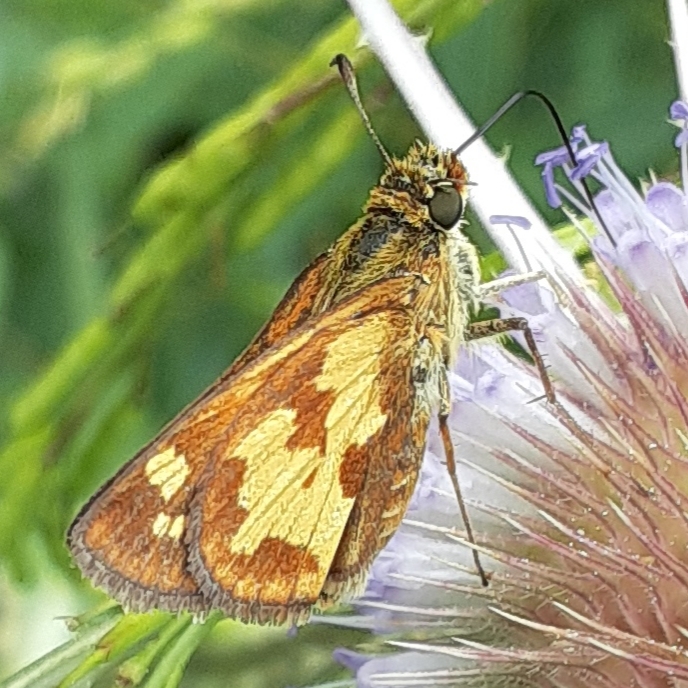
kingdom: Animalia
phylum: Arthropoda
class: Insecta
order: Lepidoptera
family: Hesperiidae
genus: Polites
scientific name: Polites coras
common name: Peck's skipper
